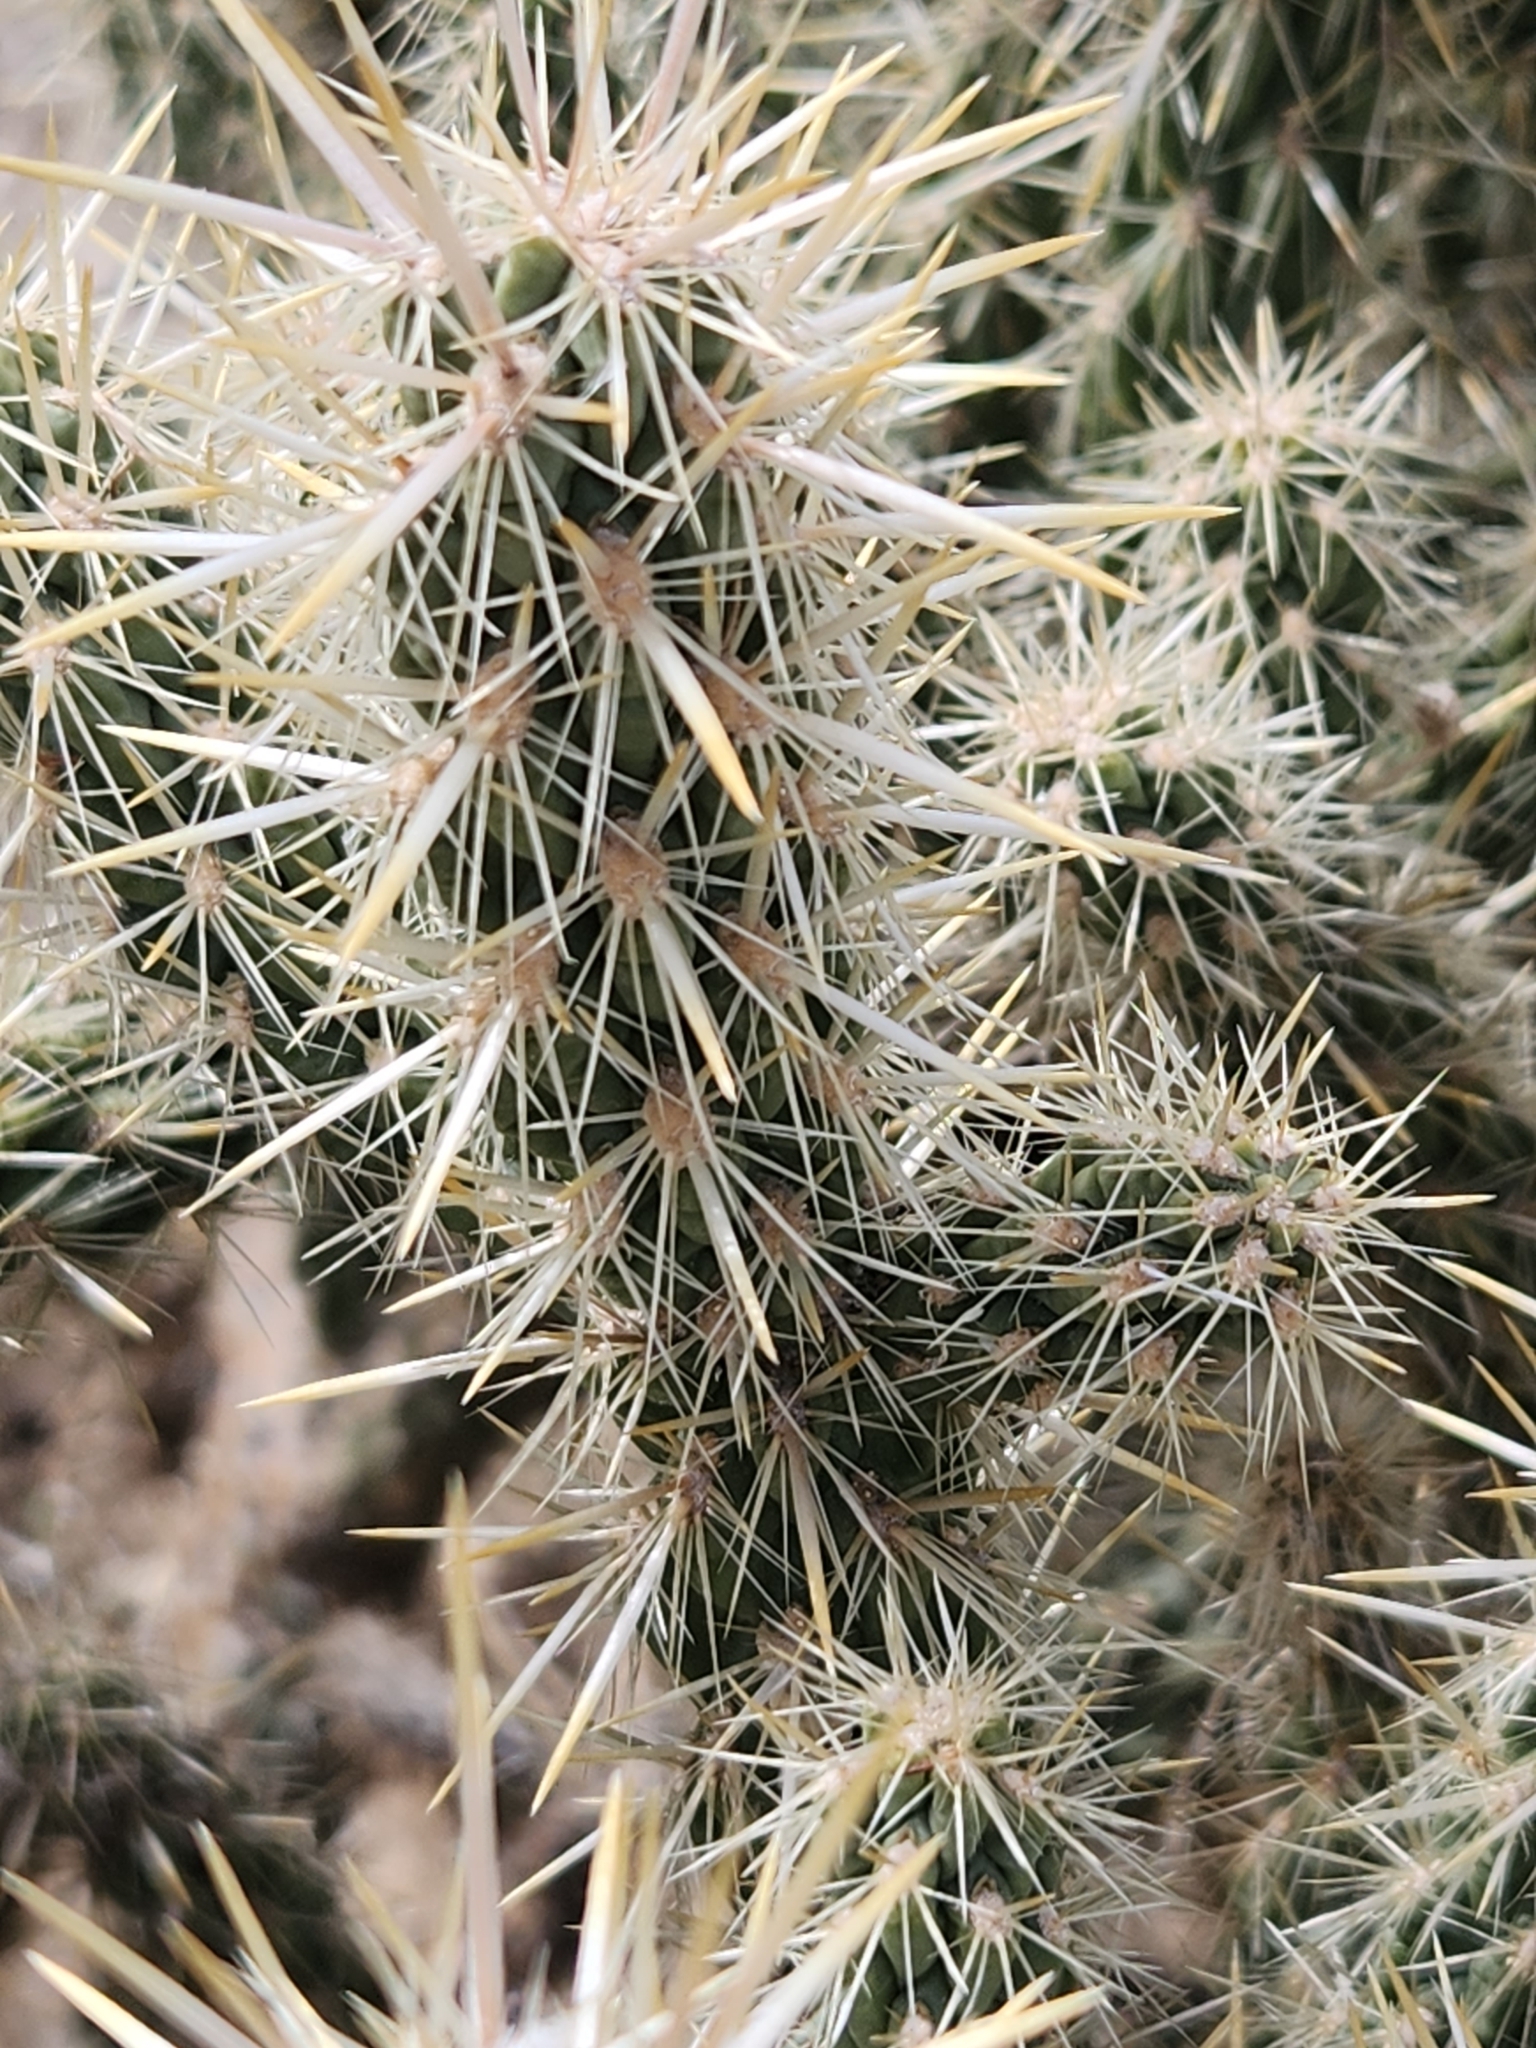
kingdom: Plantae
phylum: Tracheophyta
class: Magnoliopsida
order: Caryophyllales
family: Cactaceae
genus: Cylindropuntia
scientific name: Cylindropuntia echinocarpa
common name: Ground cholla
